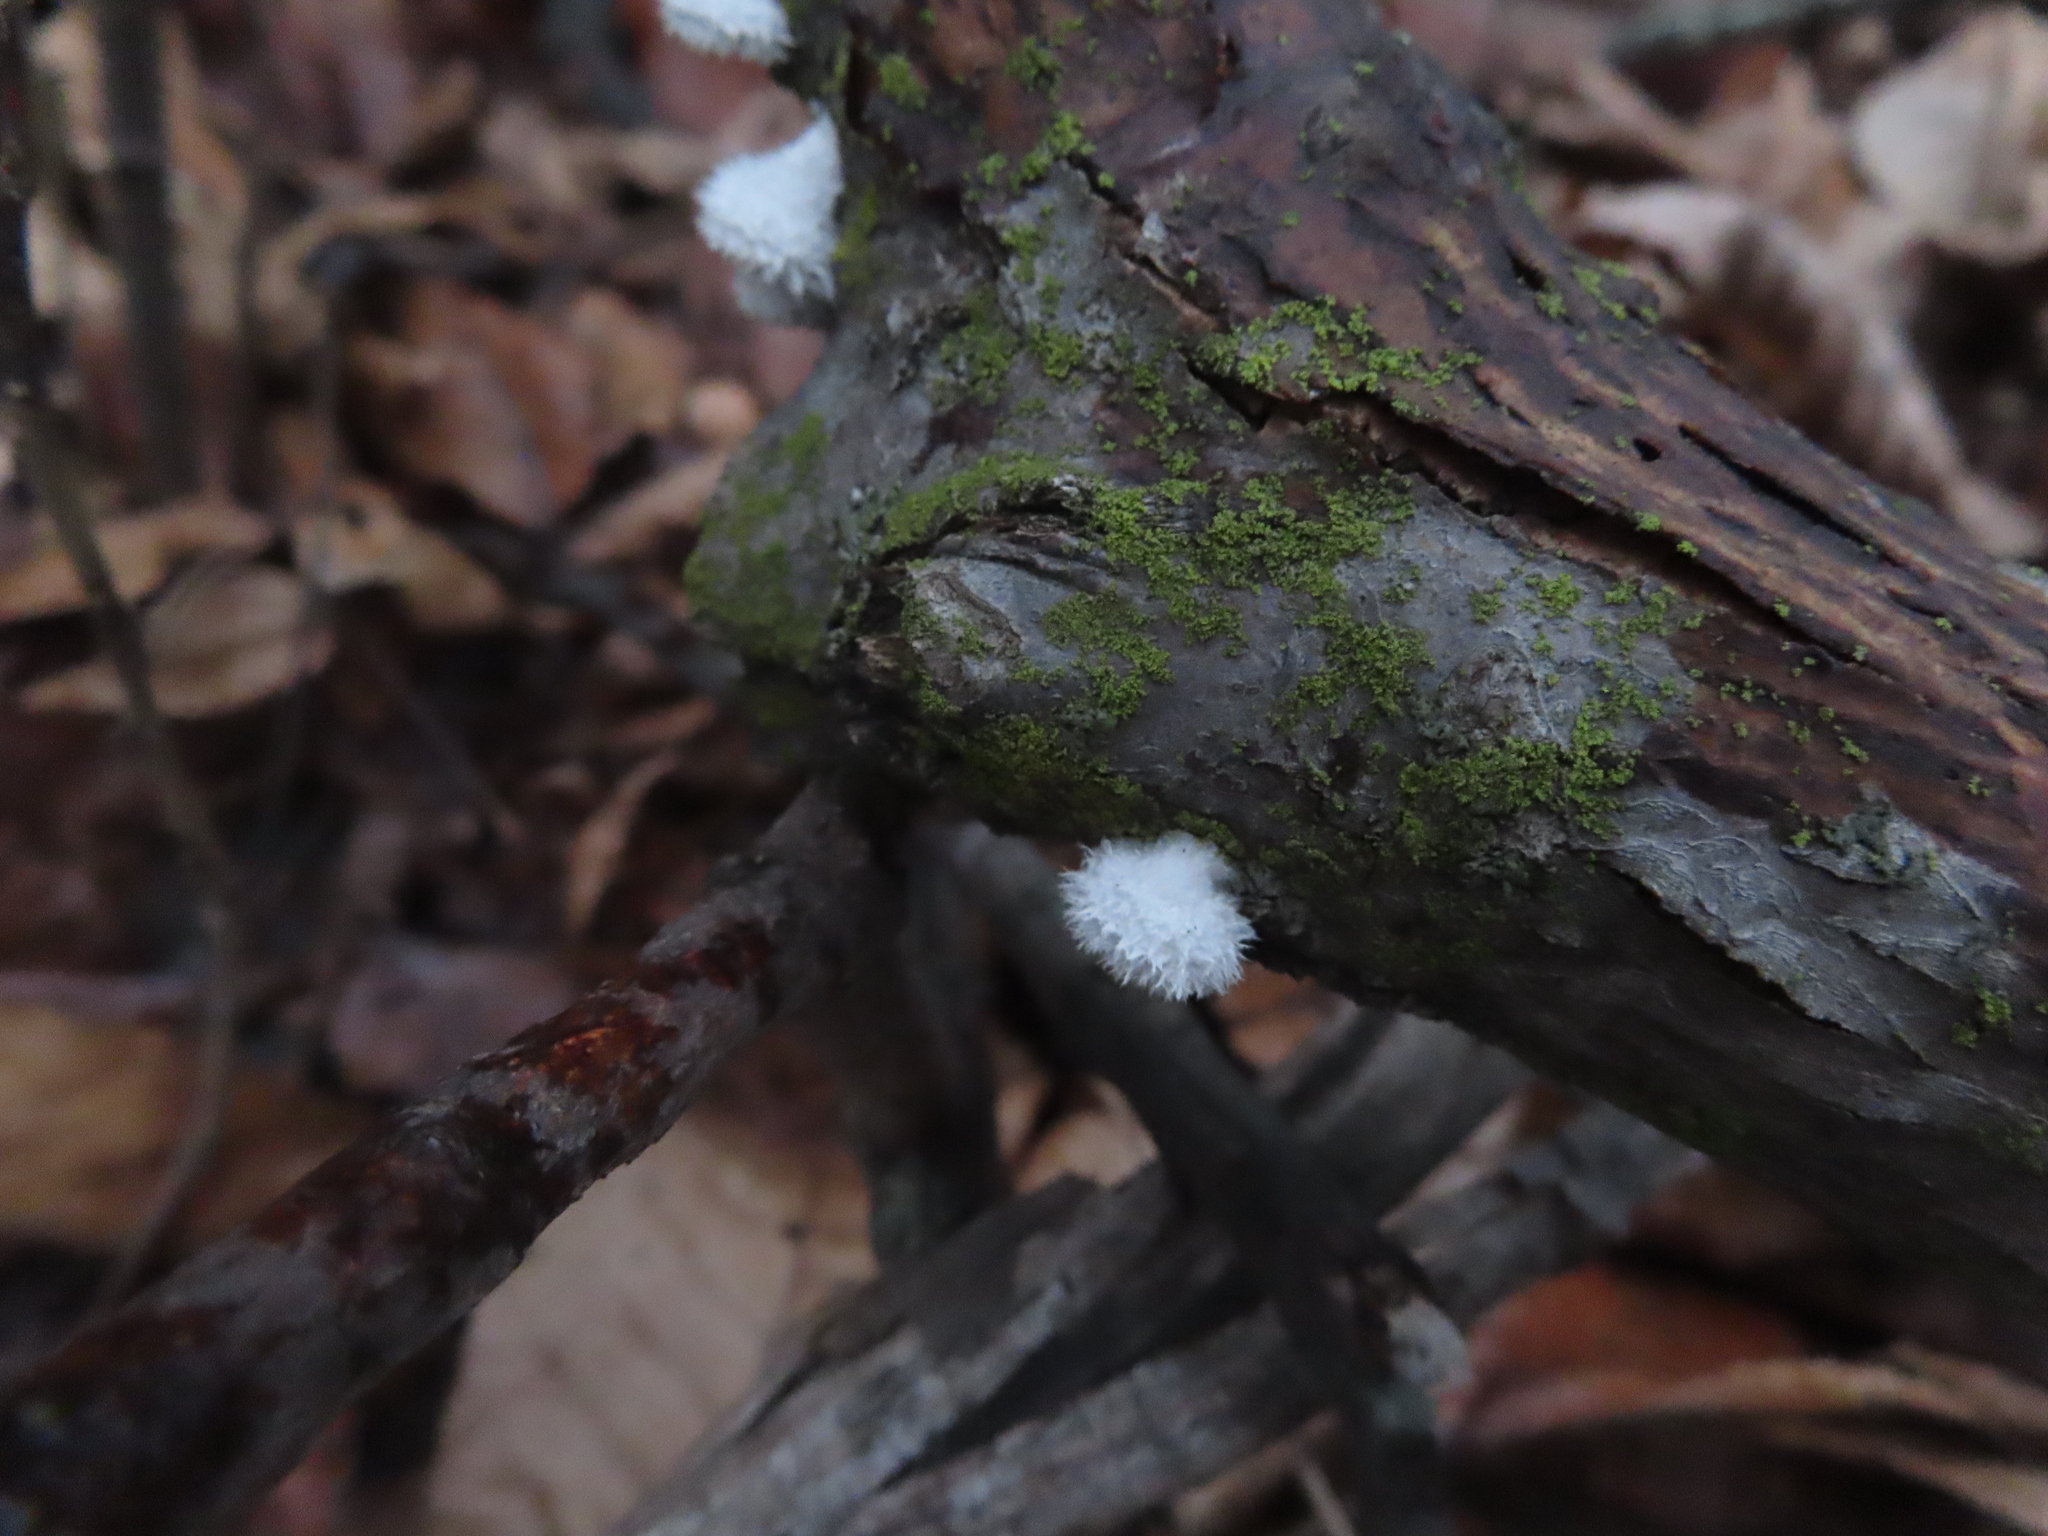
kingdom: Fungi
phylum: Basidiomycota
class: Agaricomycetes
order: Agaricales
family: Schizophyllaceae
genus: Schizophyllum
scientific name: Schizophyllum commune
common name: Common porecrust
